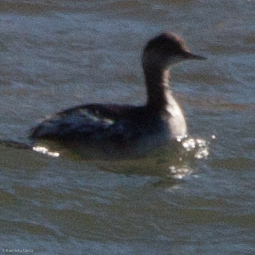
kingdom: Animalia
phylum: Chordata
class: Aves
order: Podicipediformes
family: Podicipedidae
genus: Podiceps
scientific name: Podiceps nigricollis
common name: Black-necked grebe
